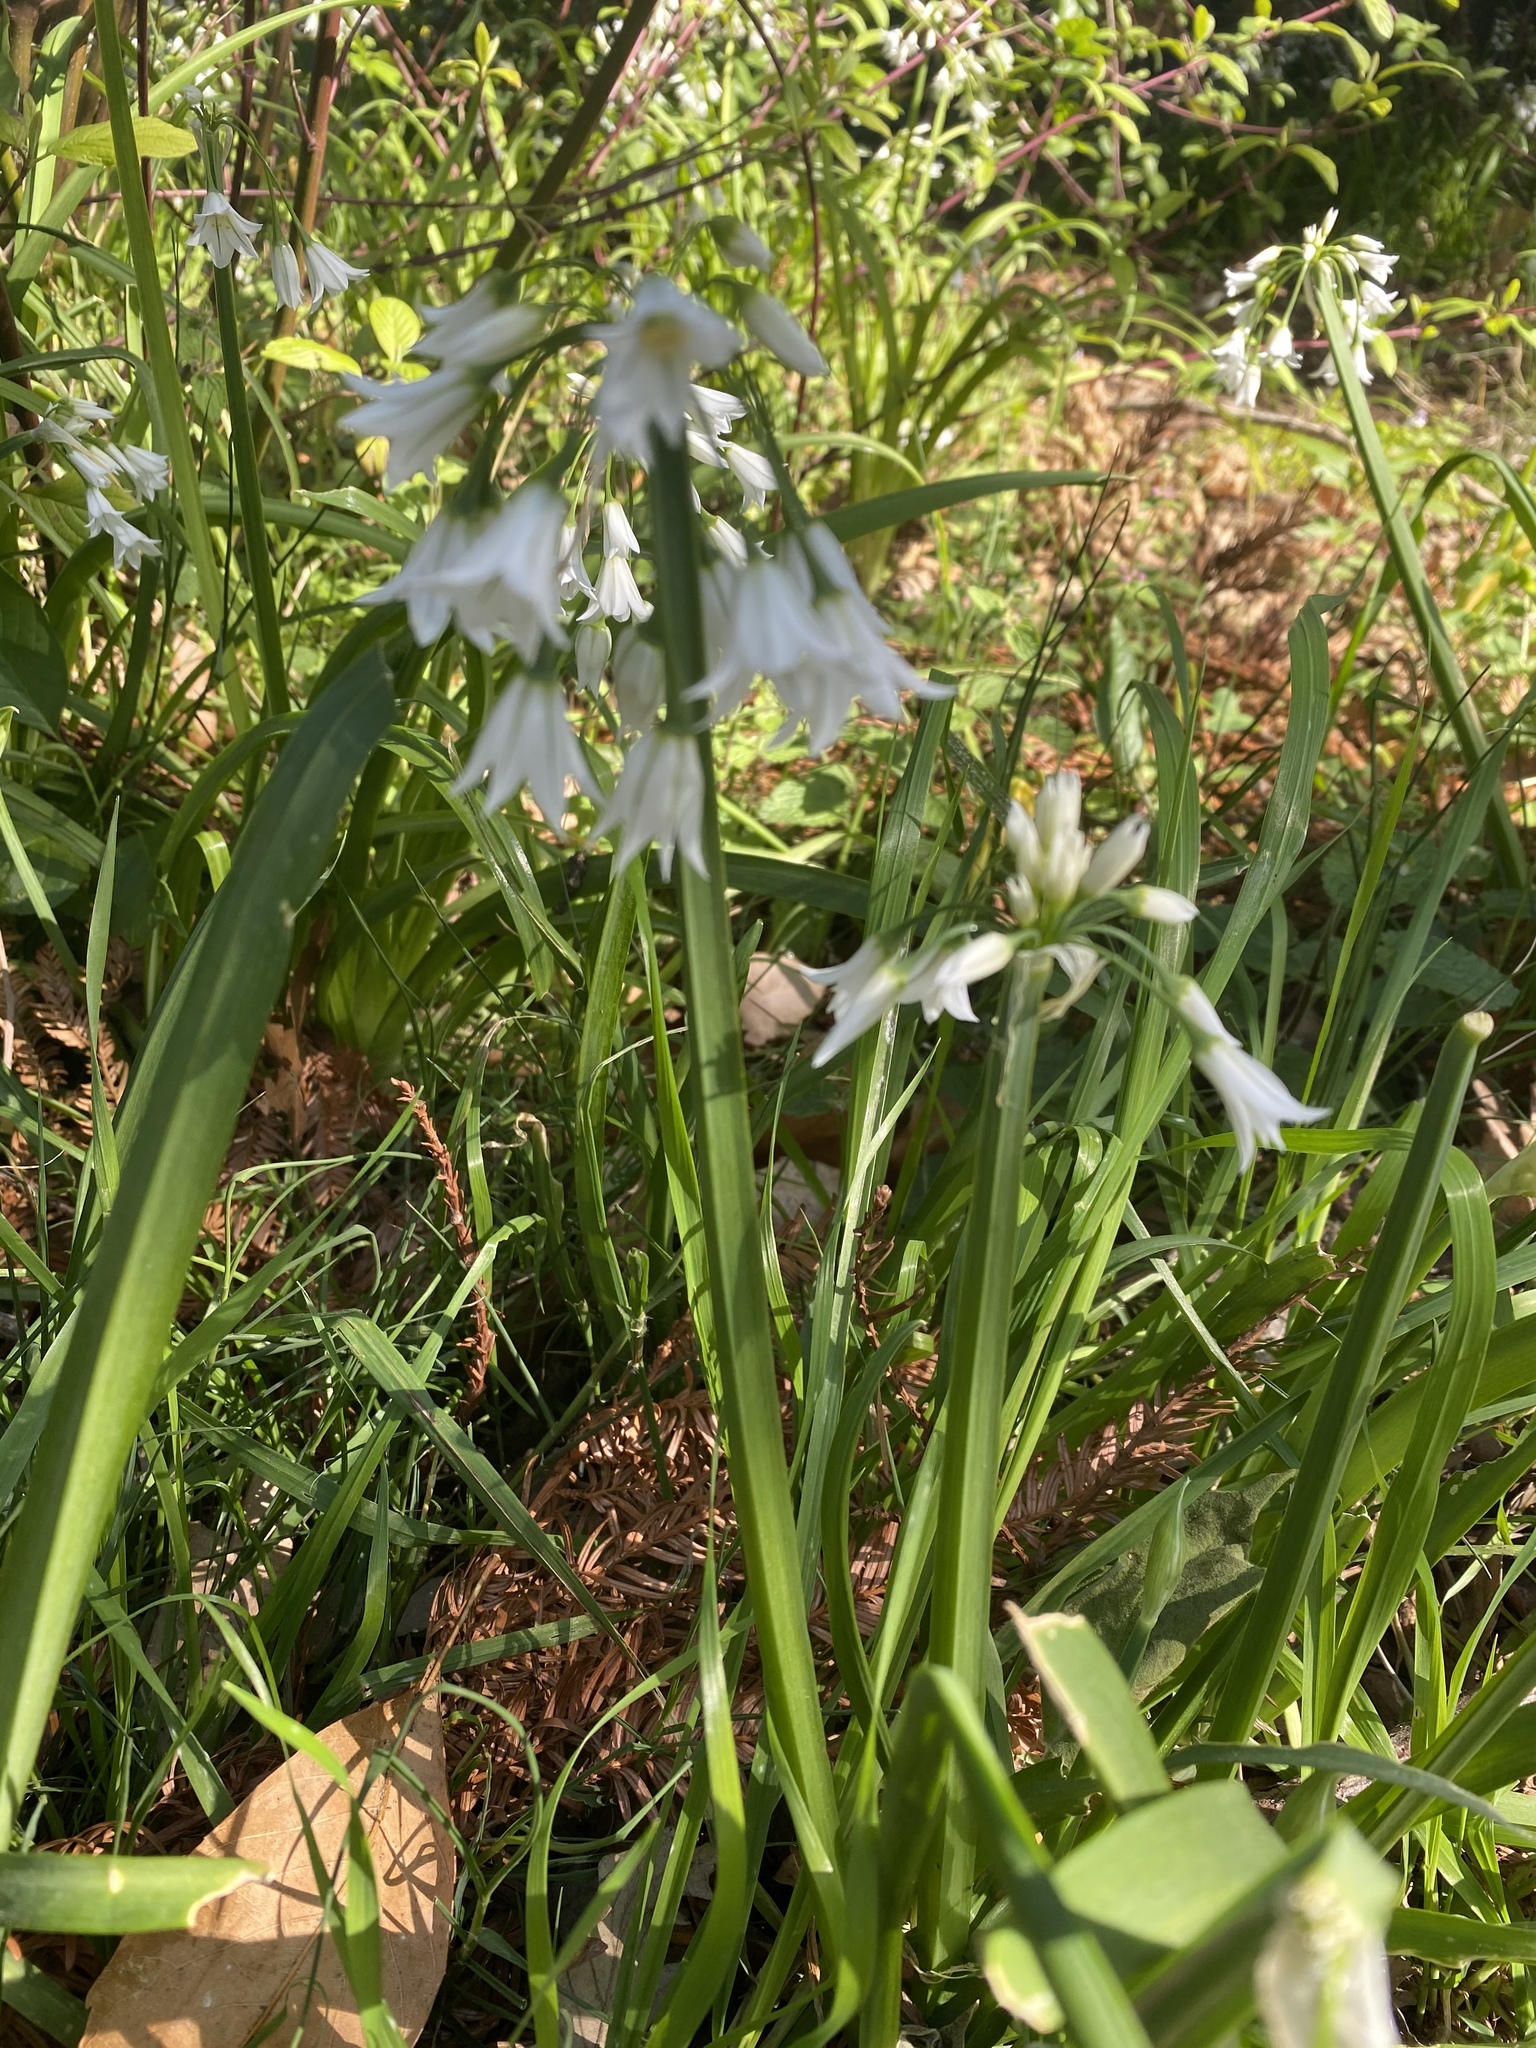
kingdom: Plantae
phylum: Tracheophyta
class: Liliopsida
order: Asparagales
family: Amaryllidaceae
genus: Allium
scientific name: Allium triquetrum
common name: Three-cornered garlic
